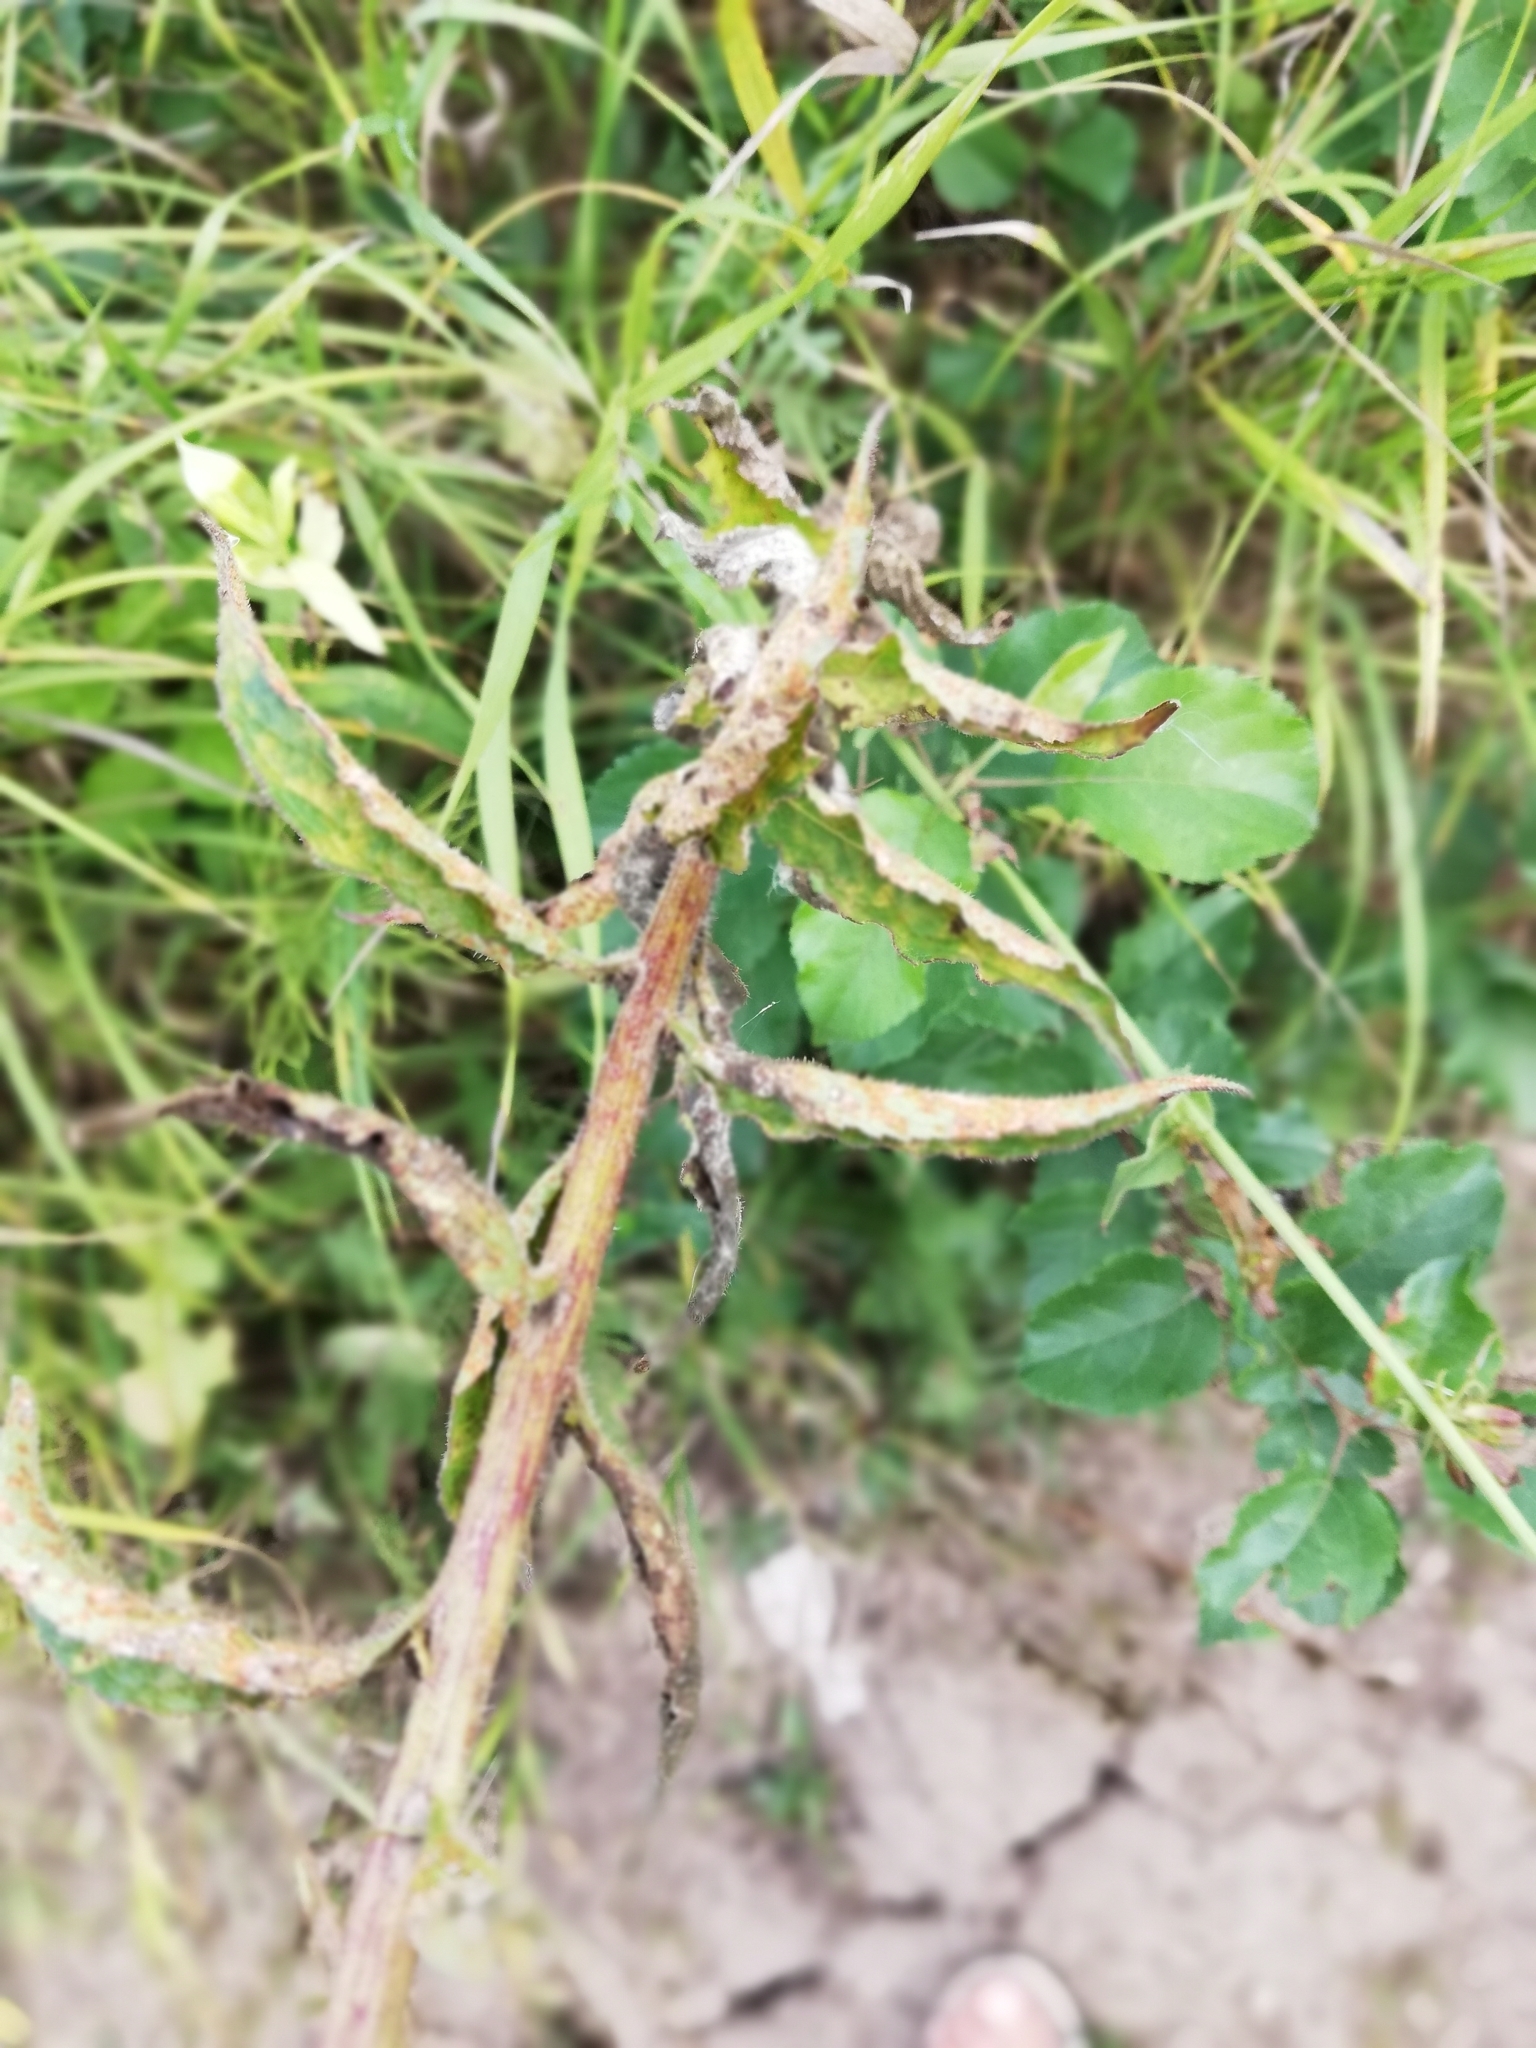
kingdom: Plantae
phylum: Tracheophyta
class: Magnoliopsida
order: Asterales
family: Campanulaceae
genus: Campanula
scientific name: Campanula rapunculoides
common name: Creeping bellflower
